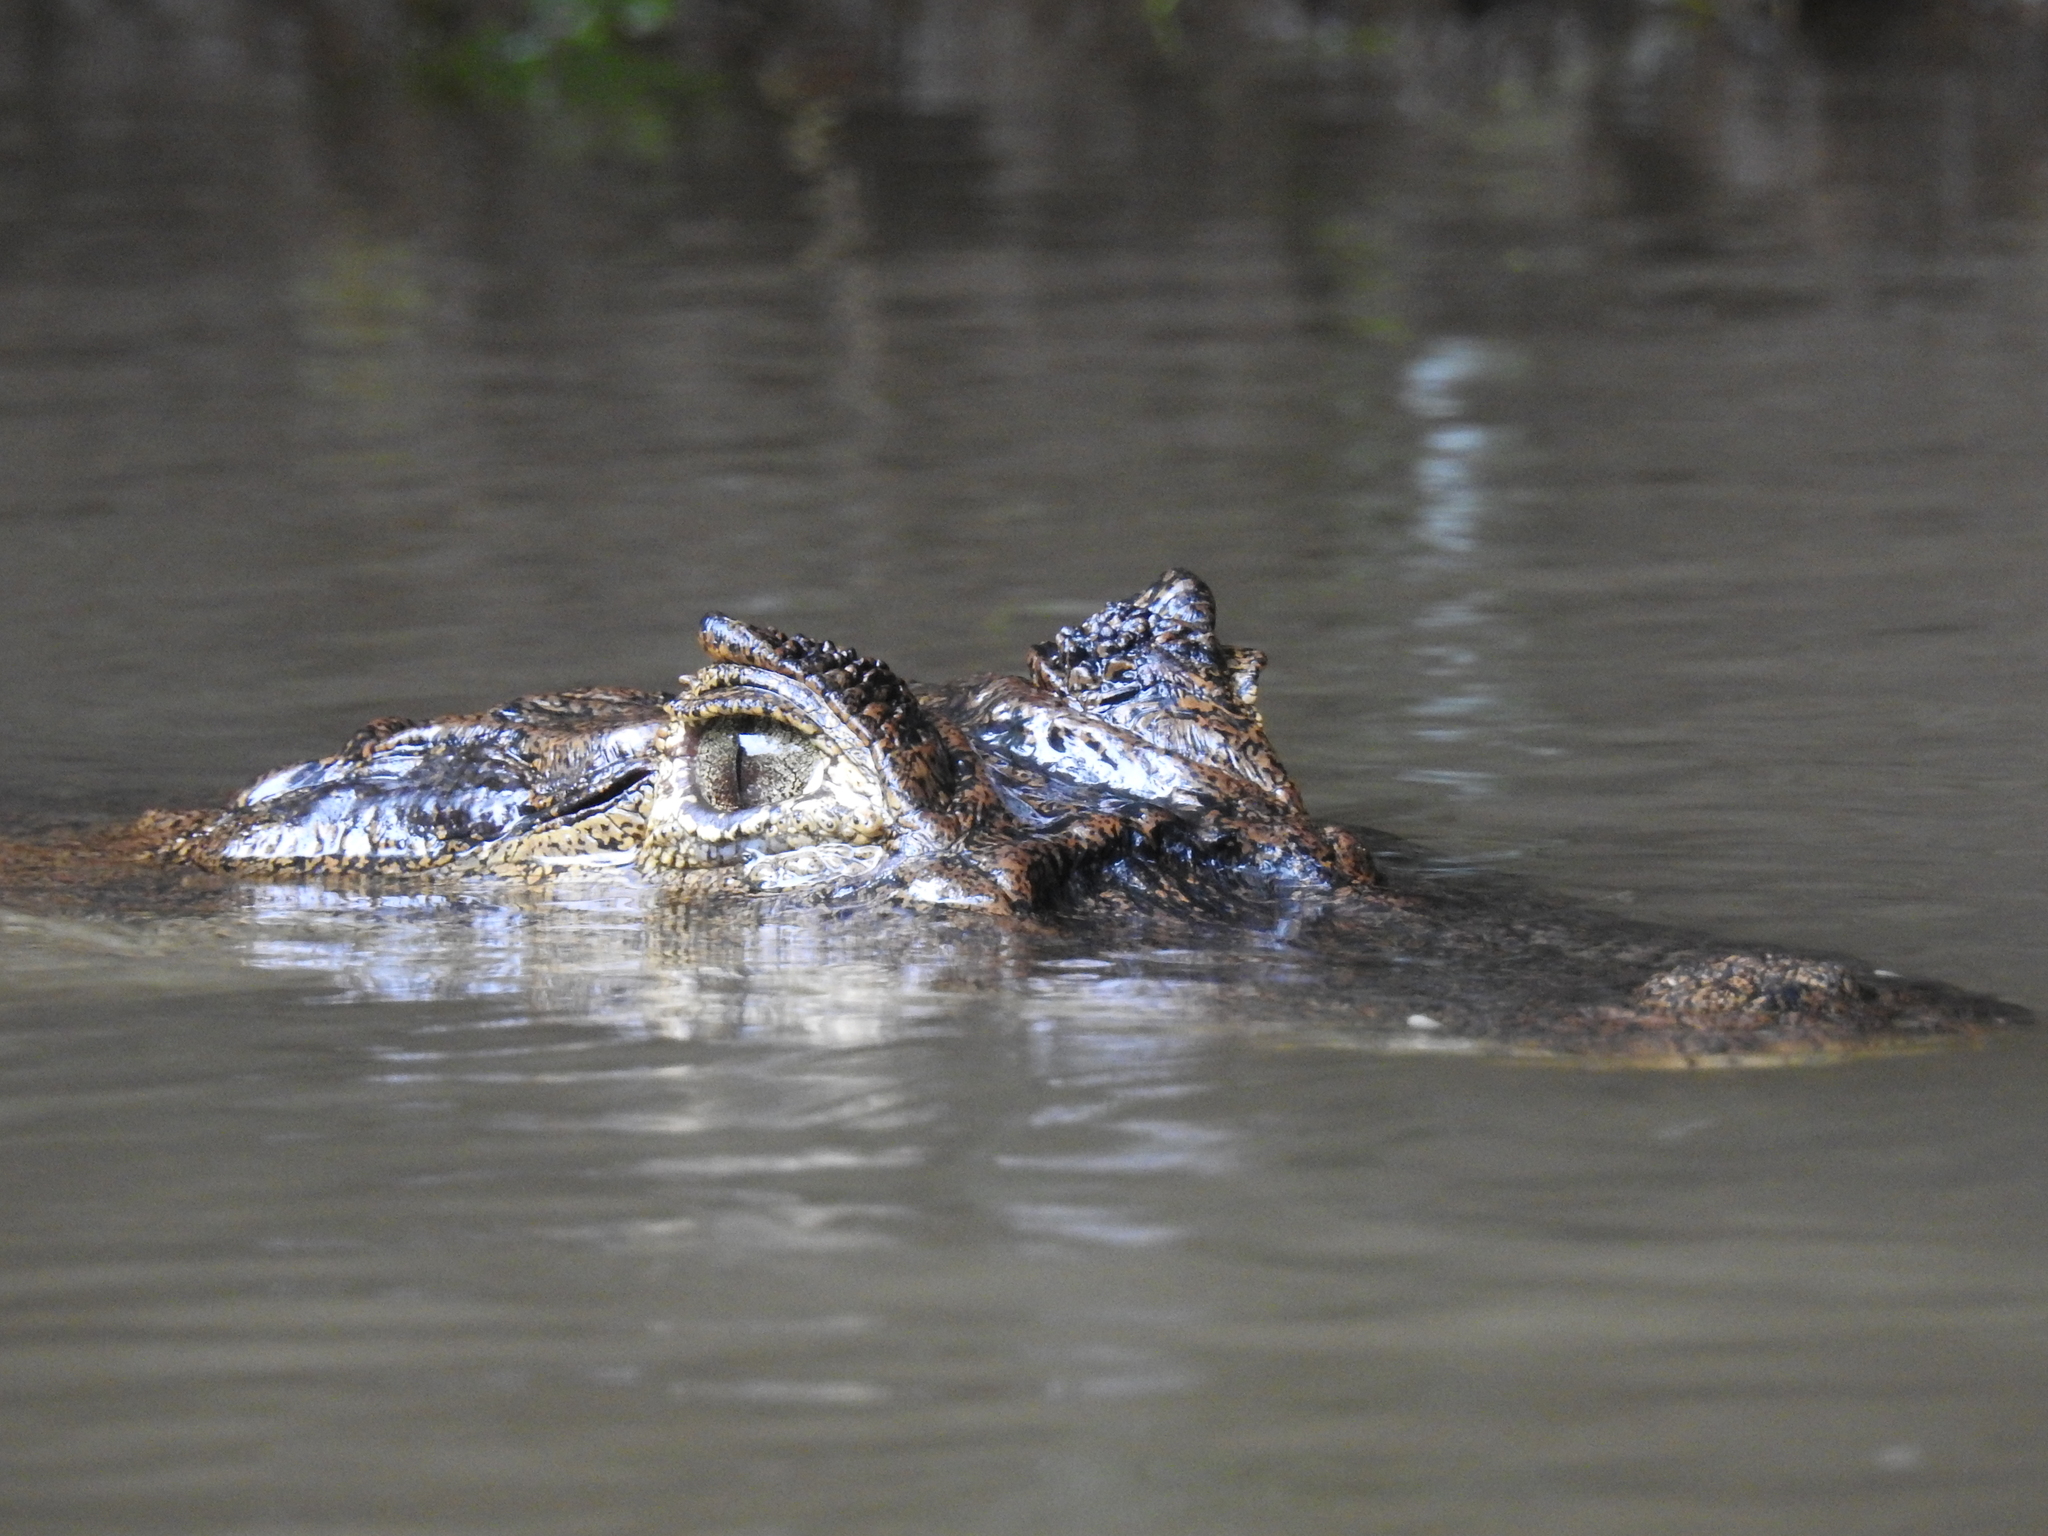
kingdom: Animalia
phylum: Chordata
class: Crocodylia
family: Alligatoridae
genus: Caiman
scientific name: Caiman crocodilus
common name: Common caiman
